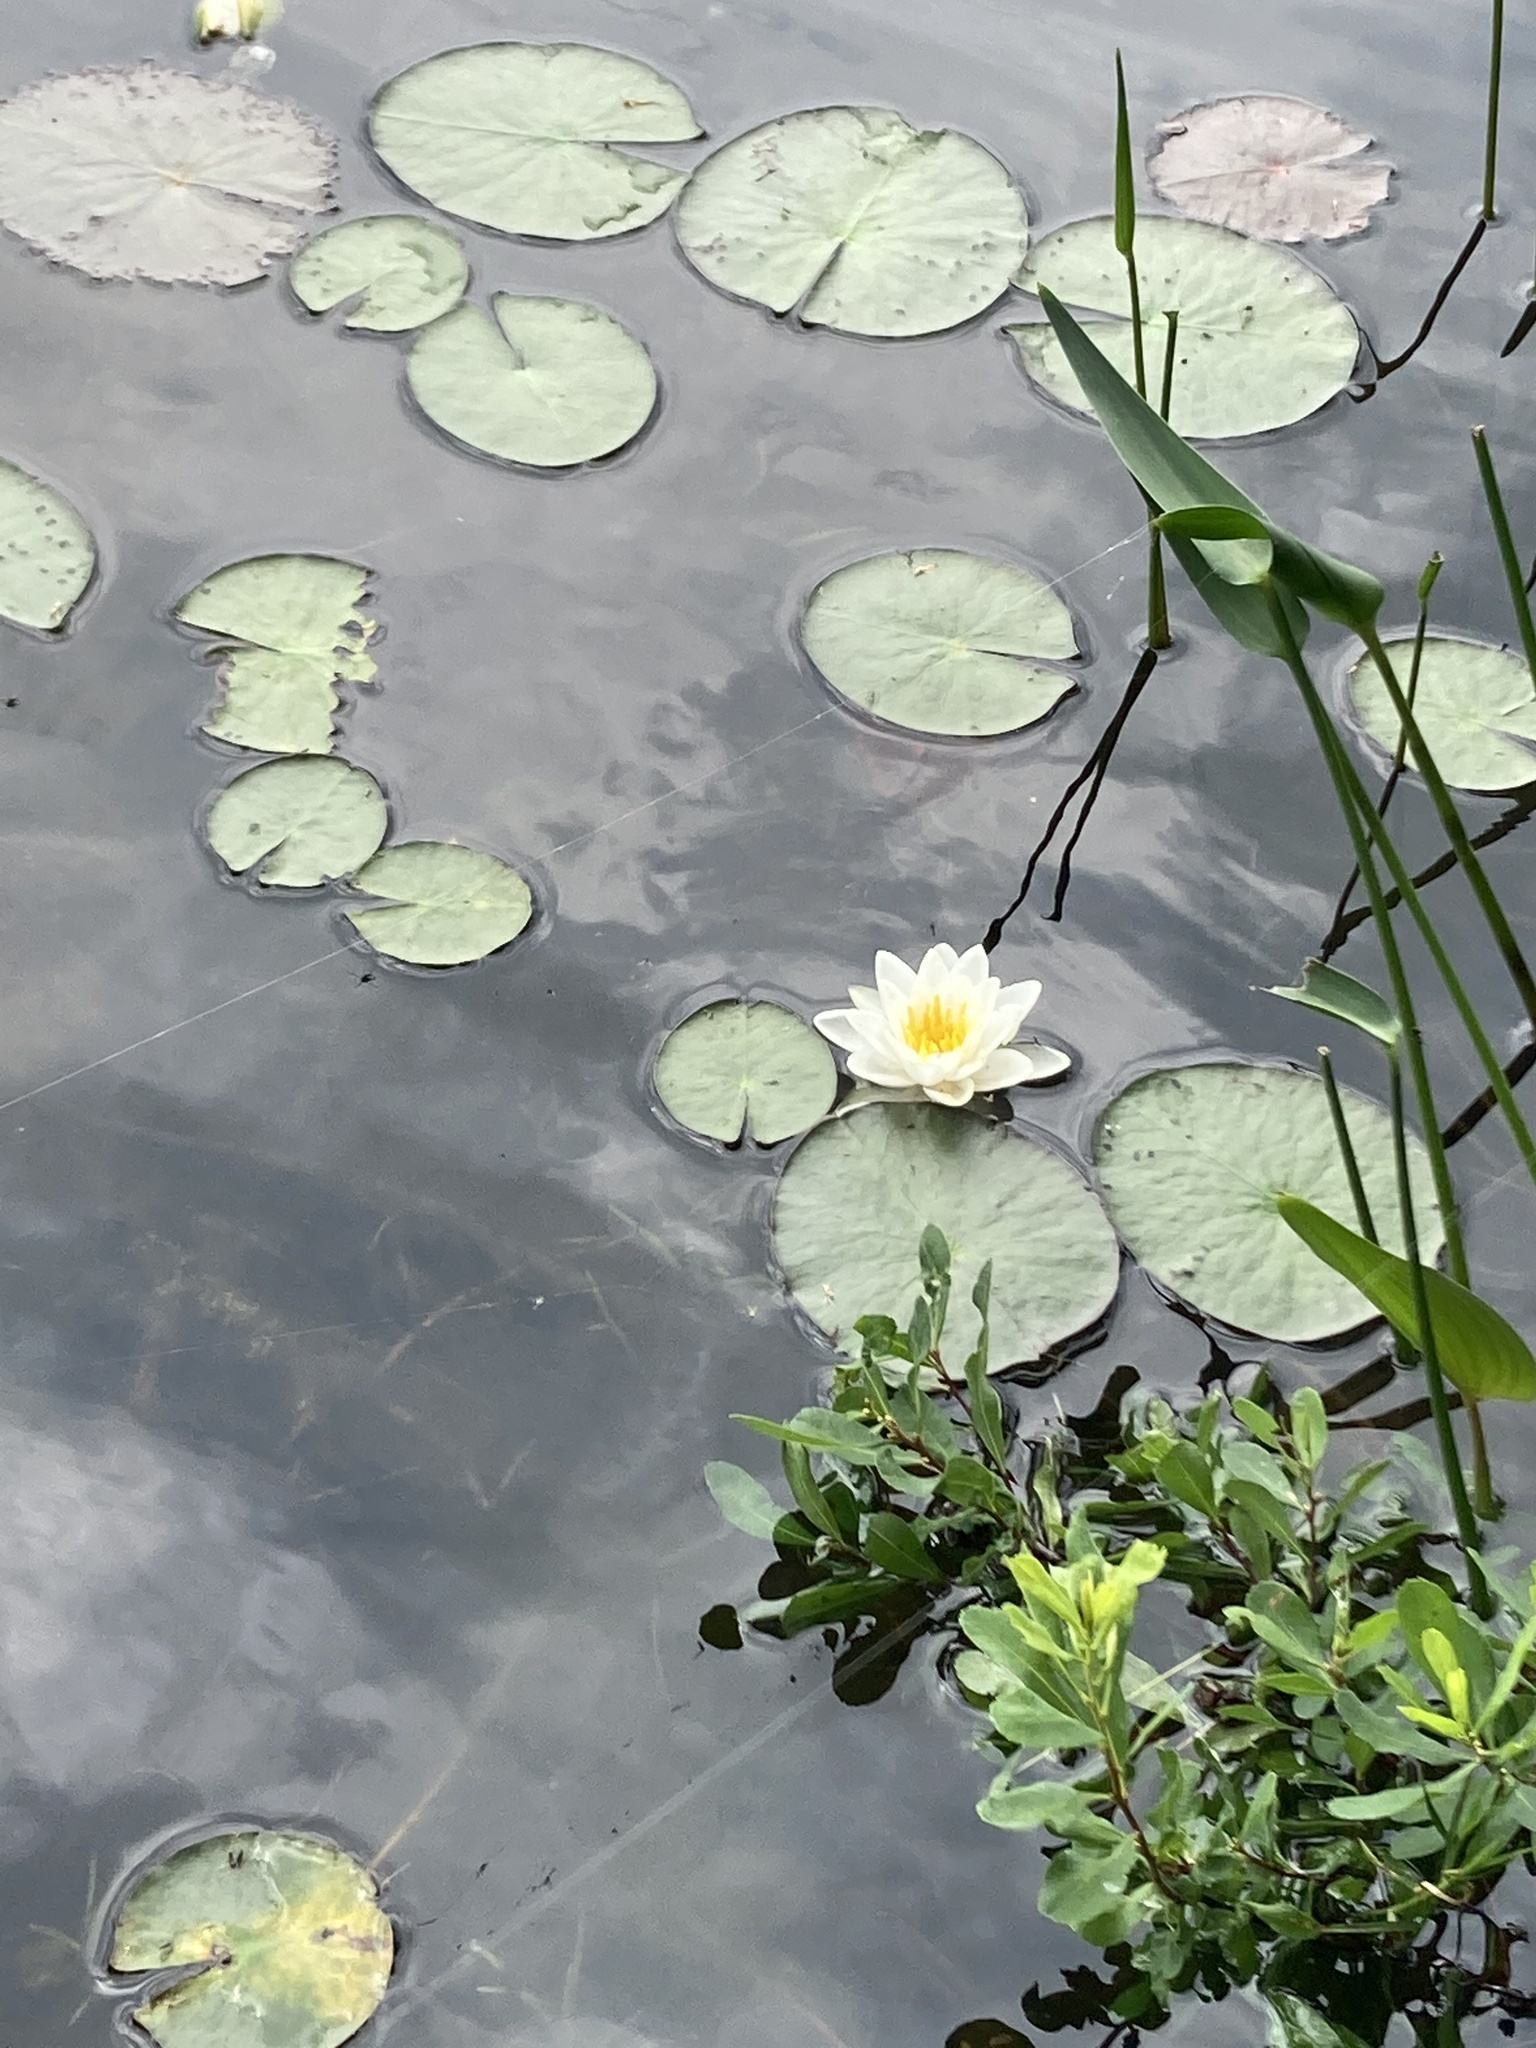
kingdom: Plantae
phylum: Tracheophyta
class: Magnoliopsida
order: Nymphaeales
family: Nymphaeaceae
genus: Nymphaea
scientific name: Nymphaea odorata
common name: Fragrant water-lily
